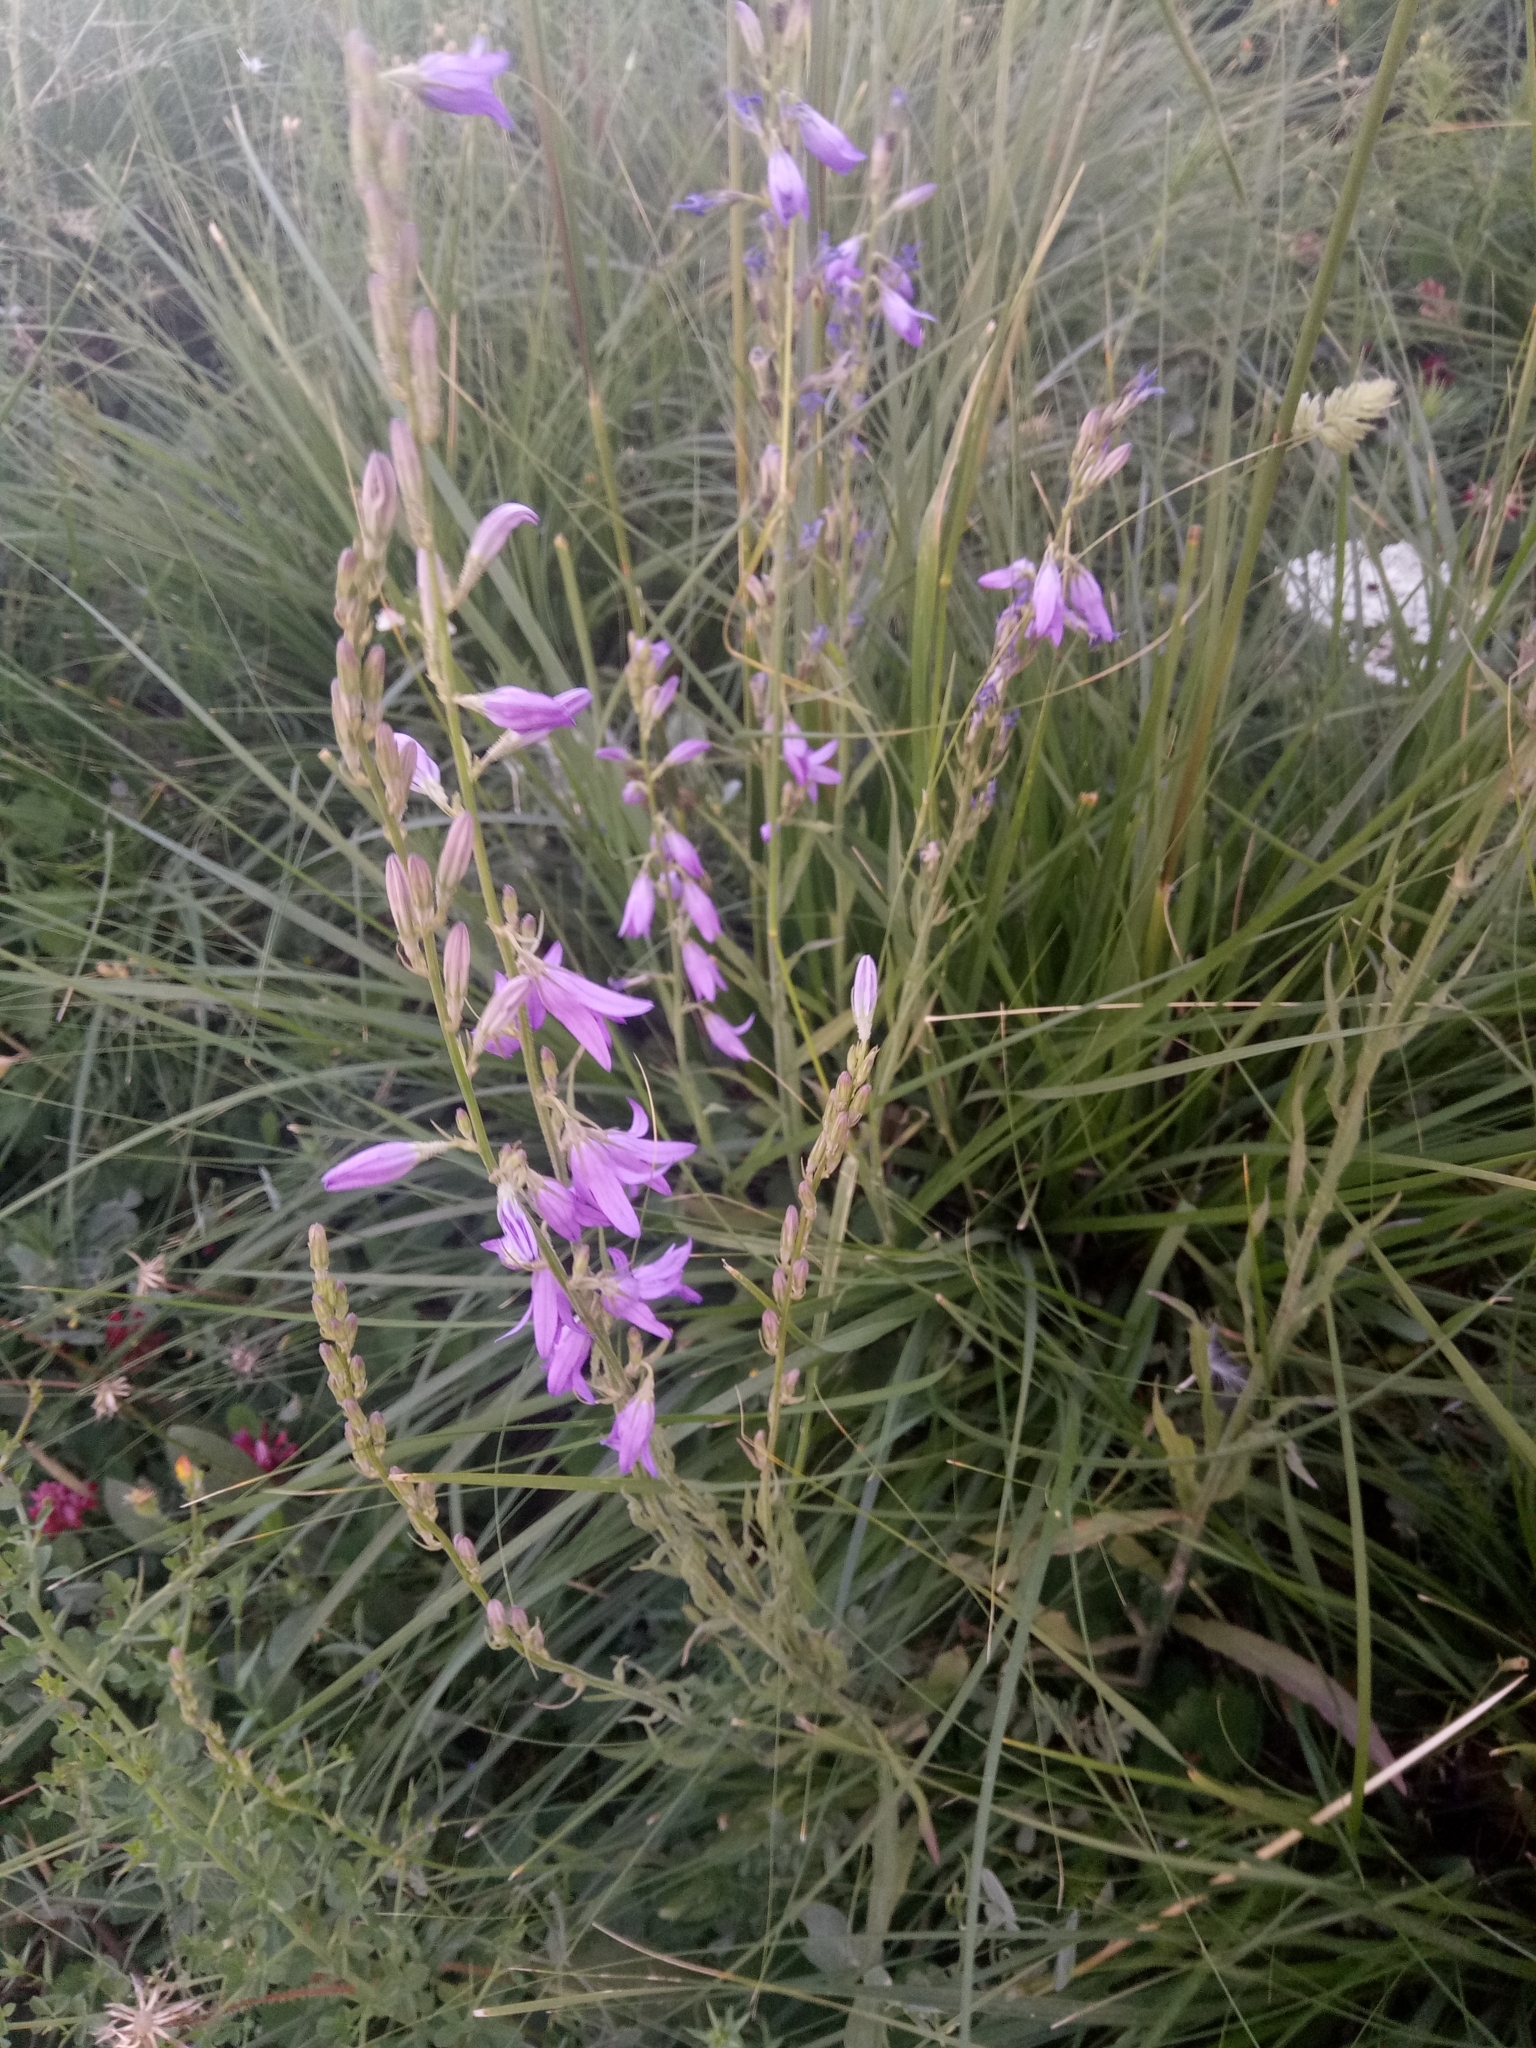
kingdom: Plantae
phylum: Tracheophyta
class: Magnoliopsida
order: Asterales
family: Campanulaceae
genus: Campanula
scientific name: Campanula rapunculus
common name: Rampion bellflower
